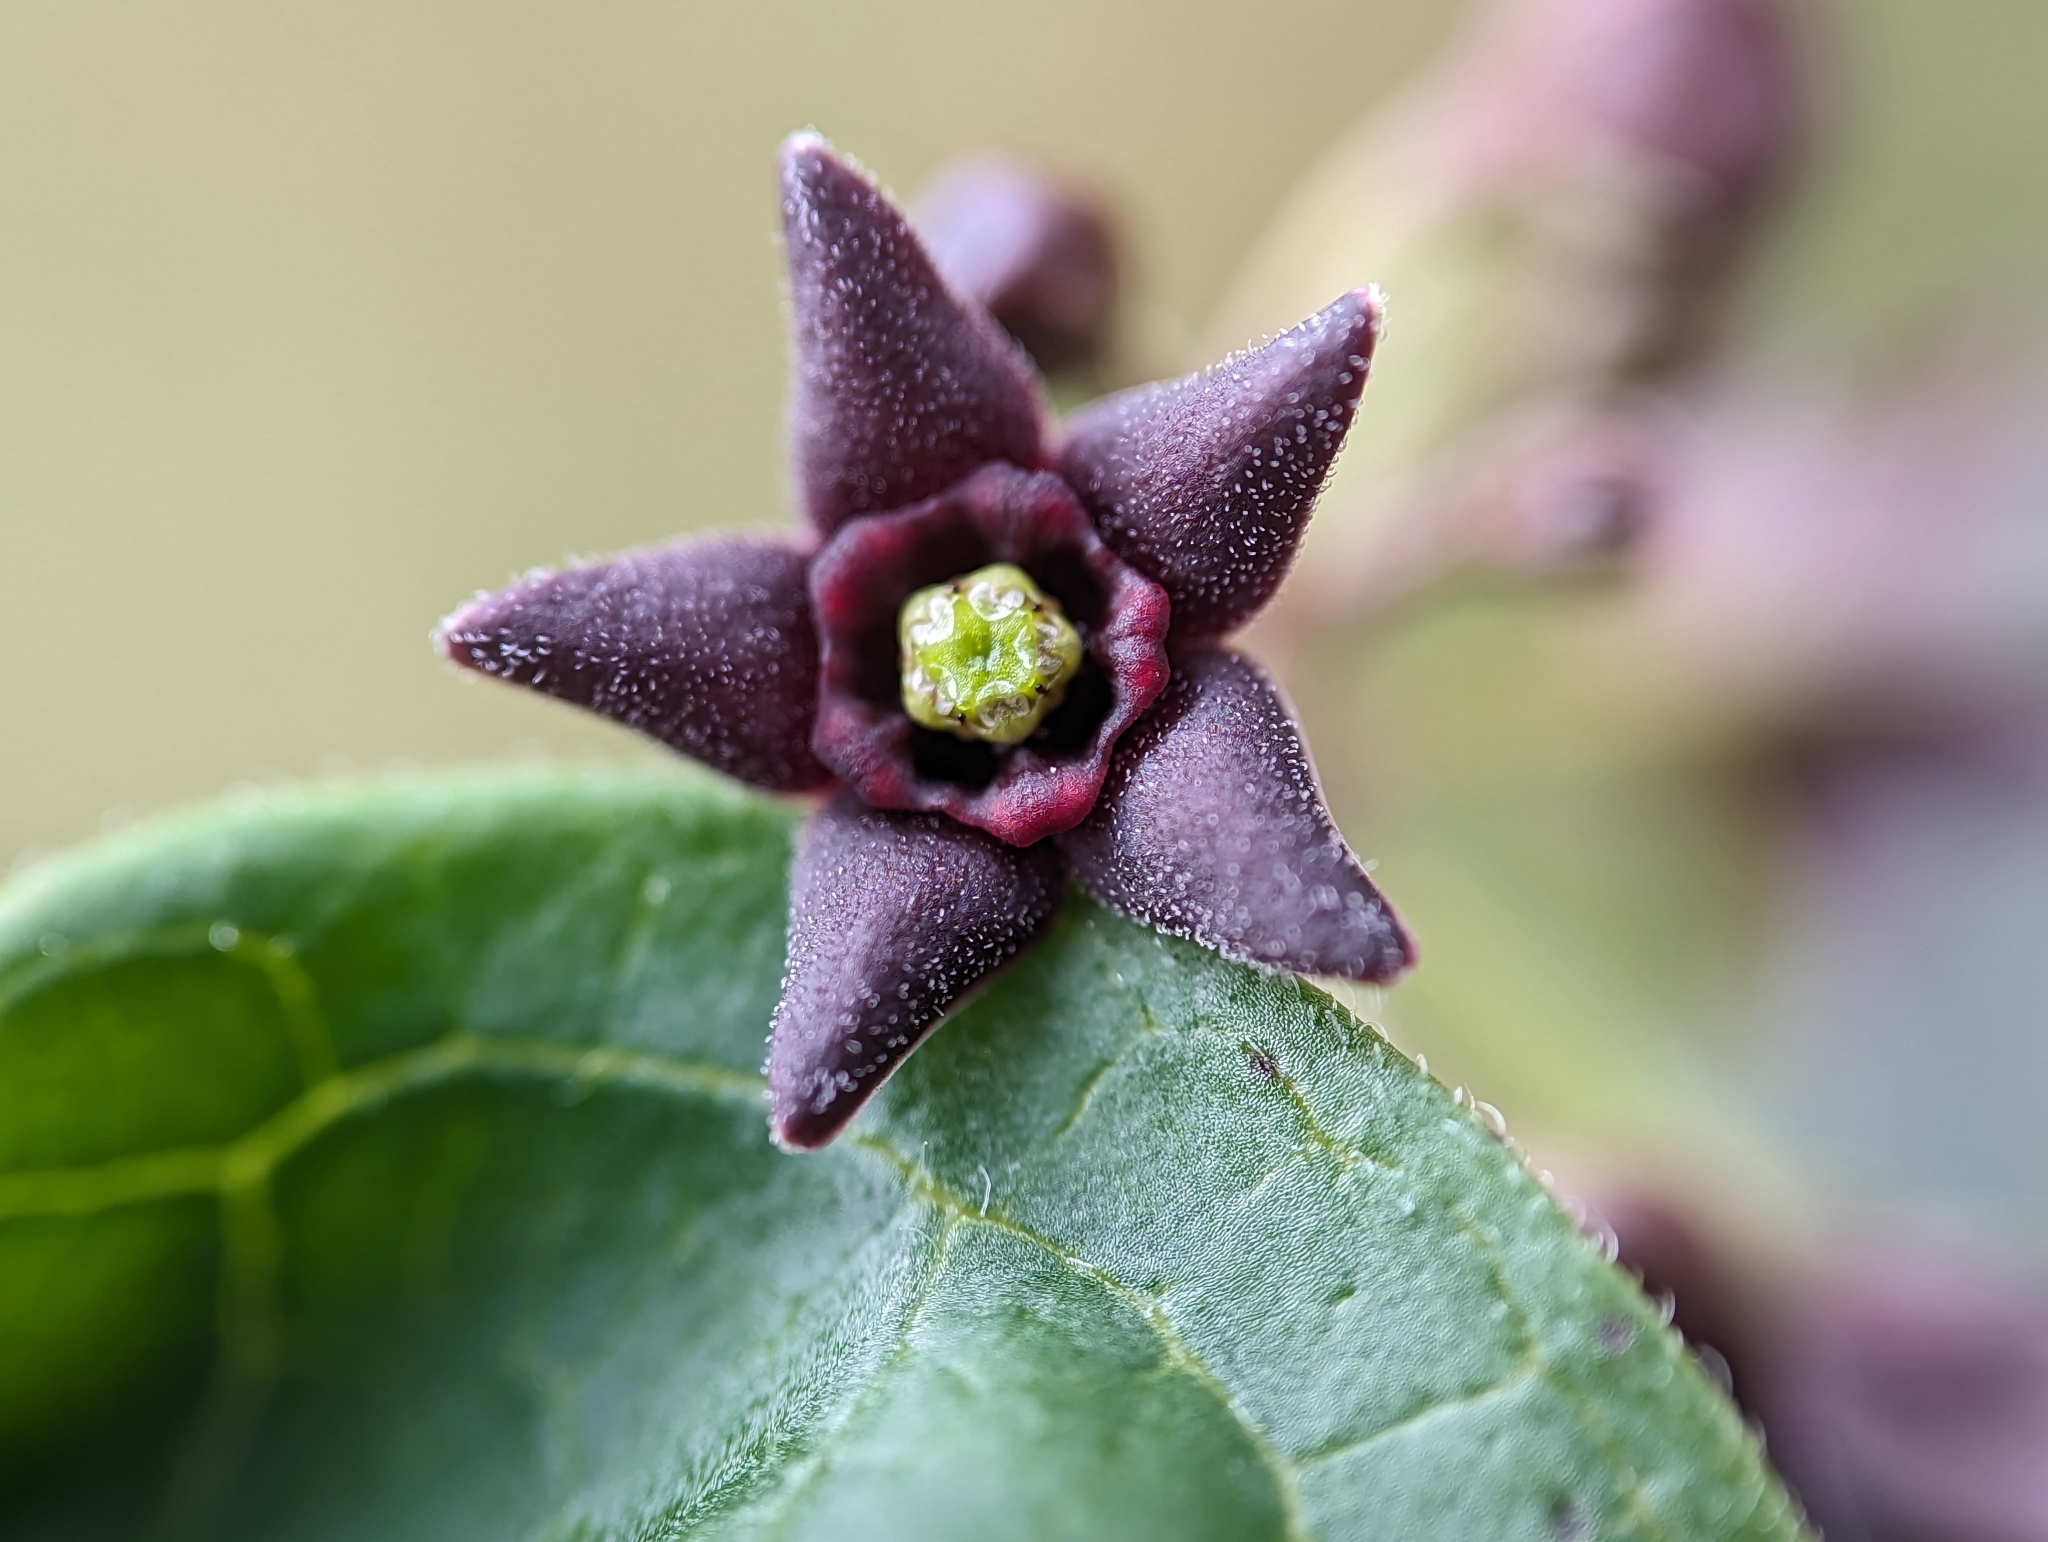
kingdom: Plantae
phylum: Tracheophyta
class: Magnoliopsida
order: Gentianales
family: Apocynaceae
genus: Vincetoxicum
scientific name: Vincetoxicum nigrum
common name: Black swallow-wort
